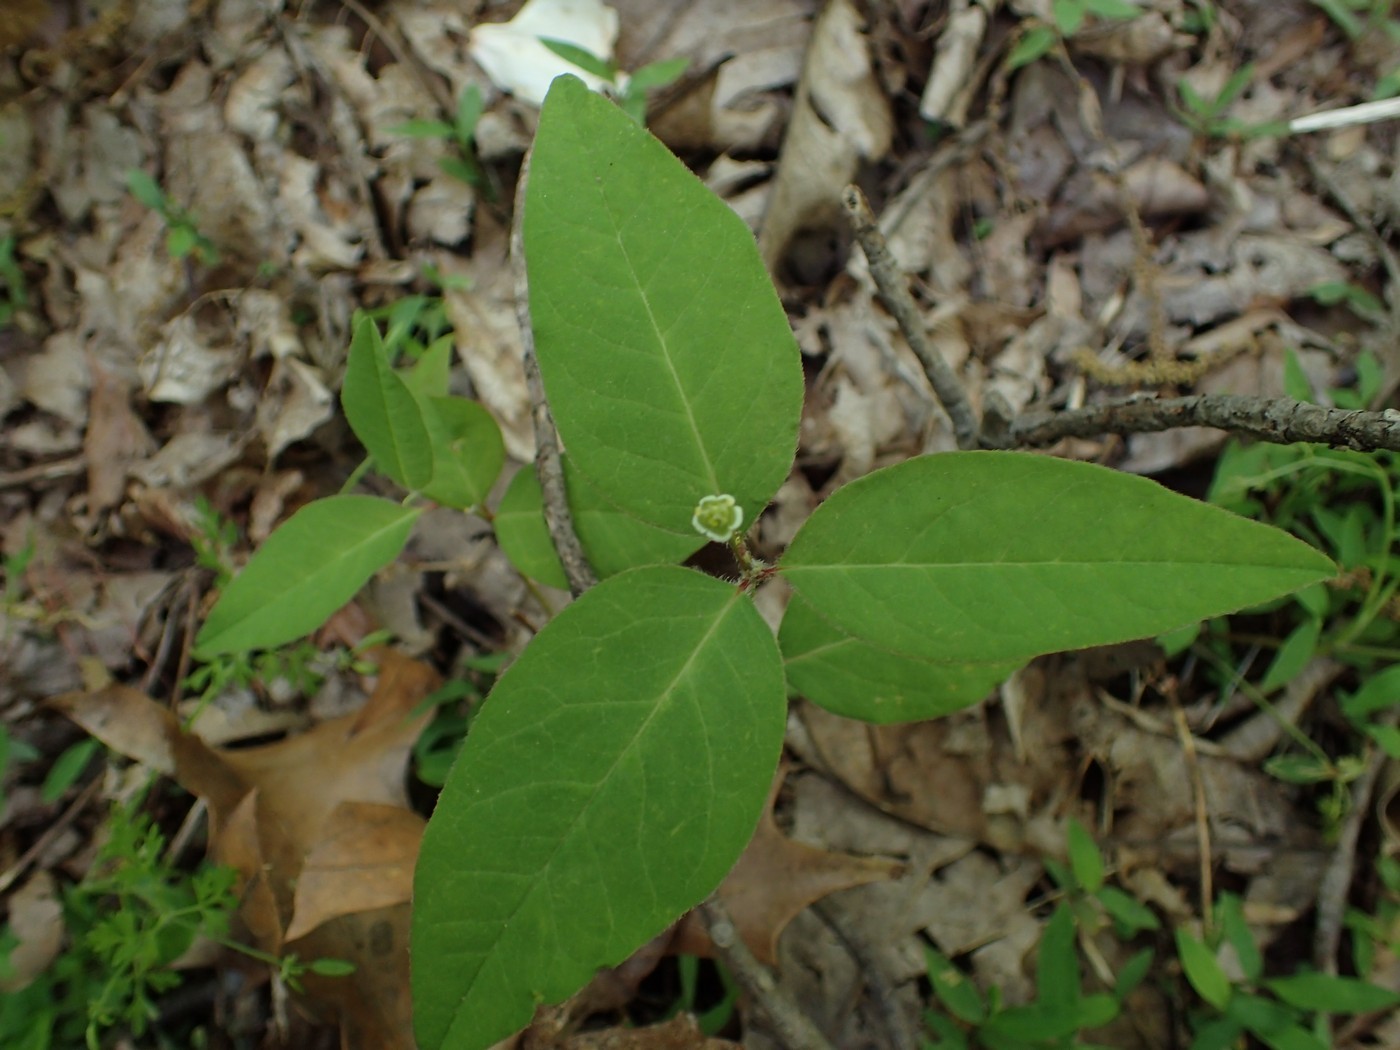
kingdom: Plantae
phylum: Tracheophyta
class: Magnoliopsida
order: Malpighiales
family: Euphorbiaceae
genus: Euphorbia
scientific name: Euphorbia mercurialina
